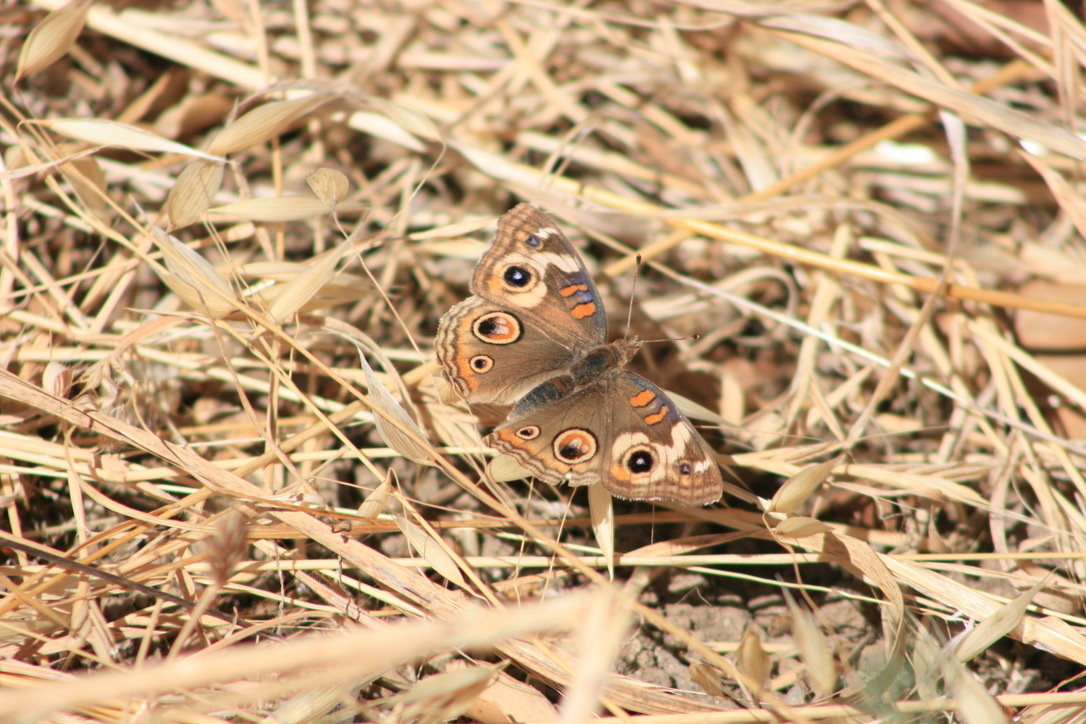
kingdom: Animalia
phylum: Arthropoda
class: Insecta
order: Lepidoptera
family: Nymphalidae
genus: Junonia
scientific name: Junonia grisea
